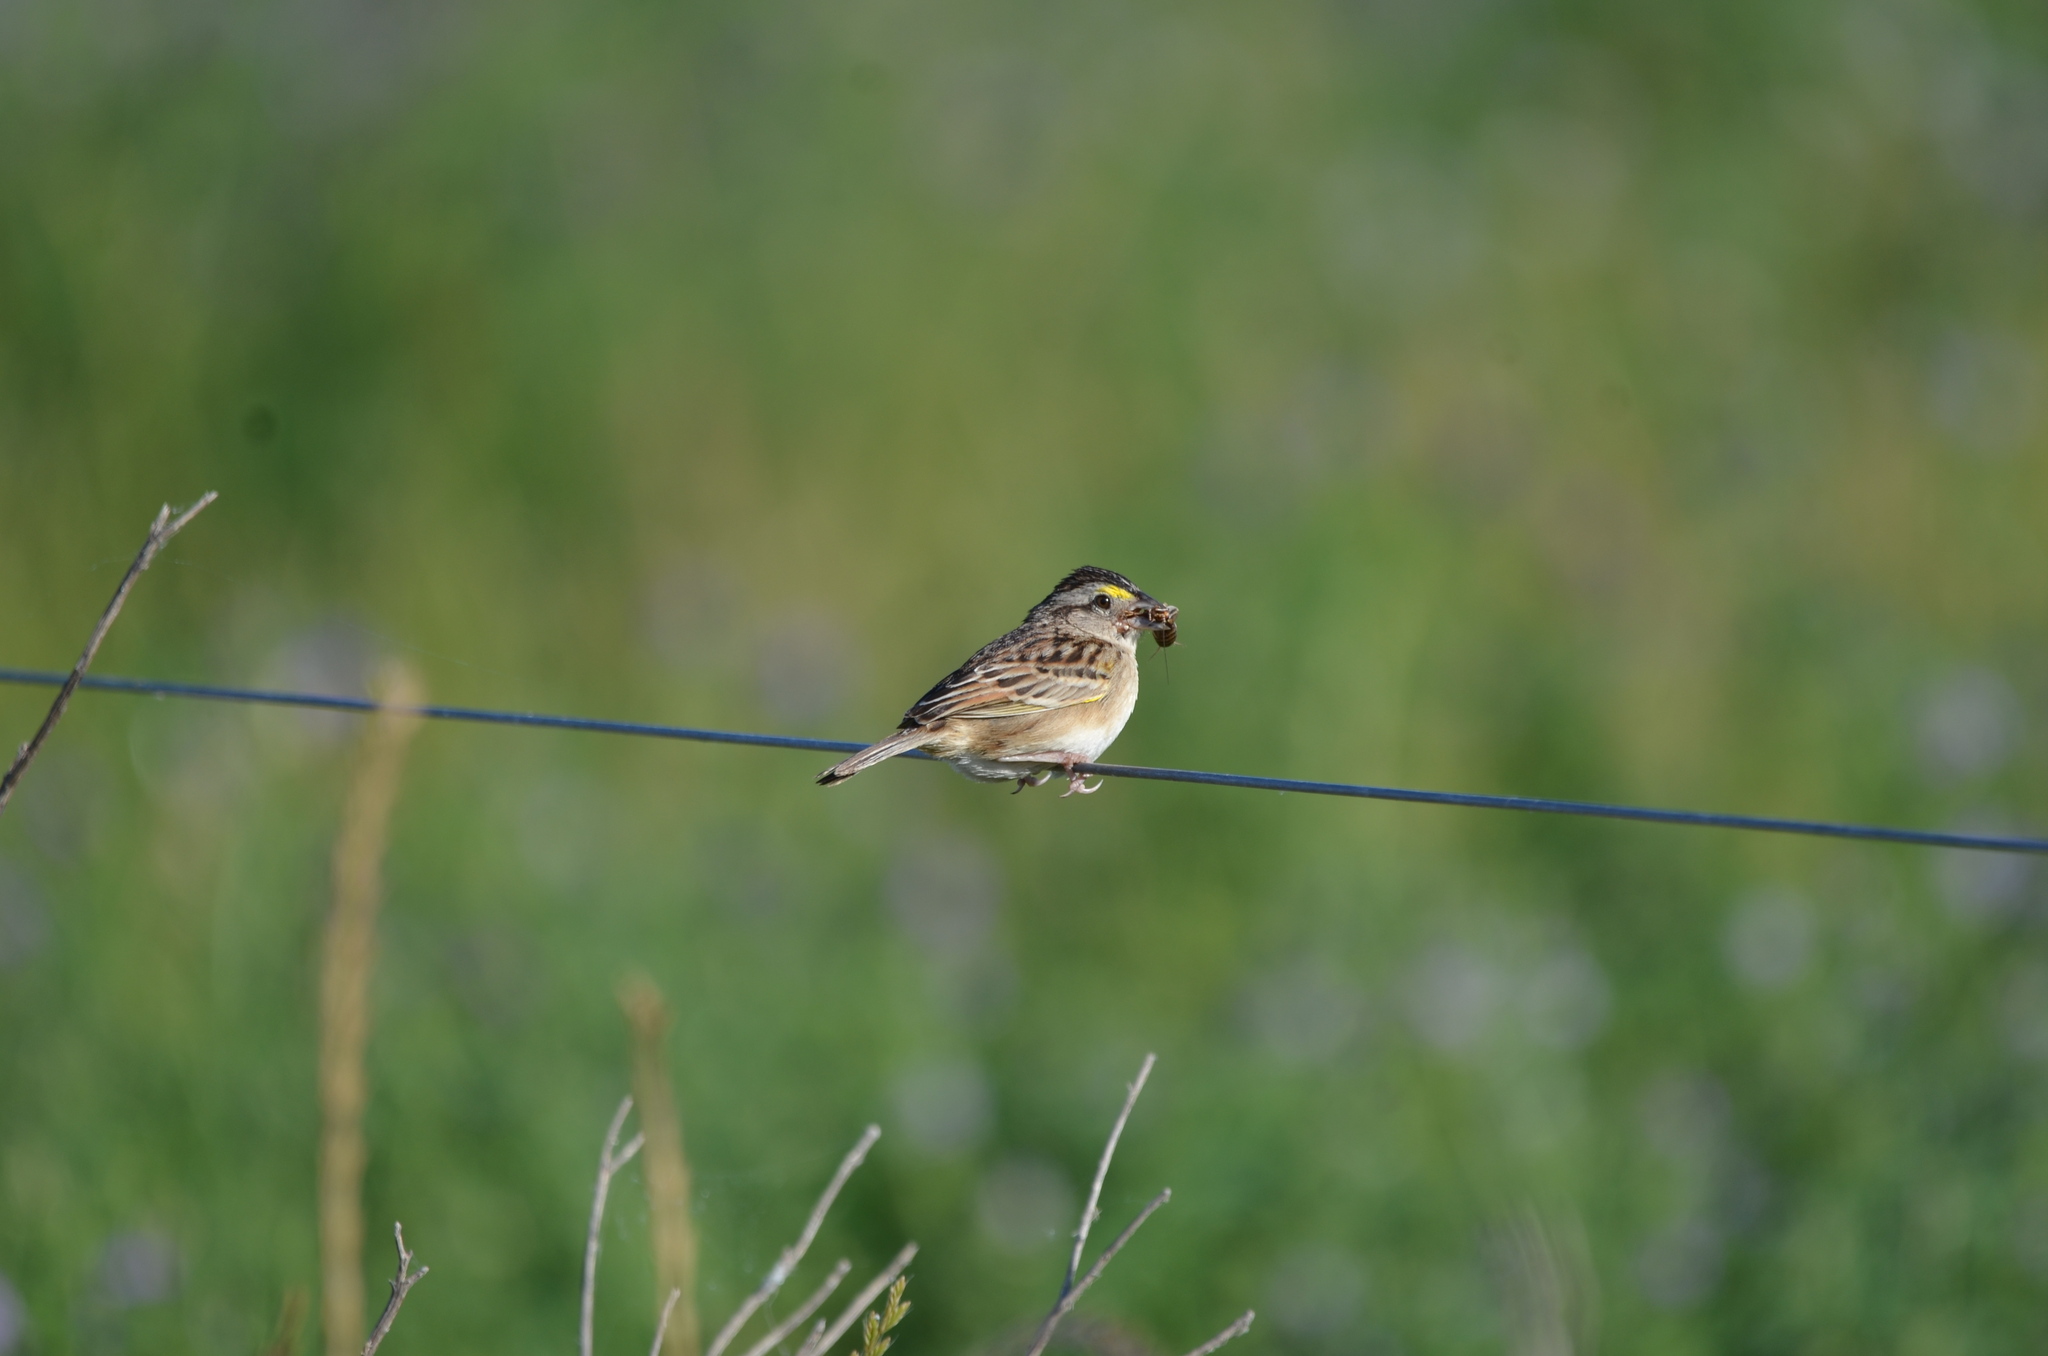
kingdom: Animalia
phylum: Chordata
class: Aves
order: Passeriformes
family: Passerellidae
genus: Ammodramus
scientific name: Ammodramus humeralis
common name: Grassland sparrow
